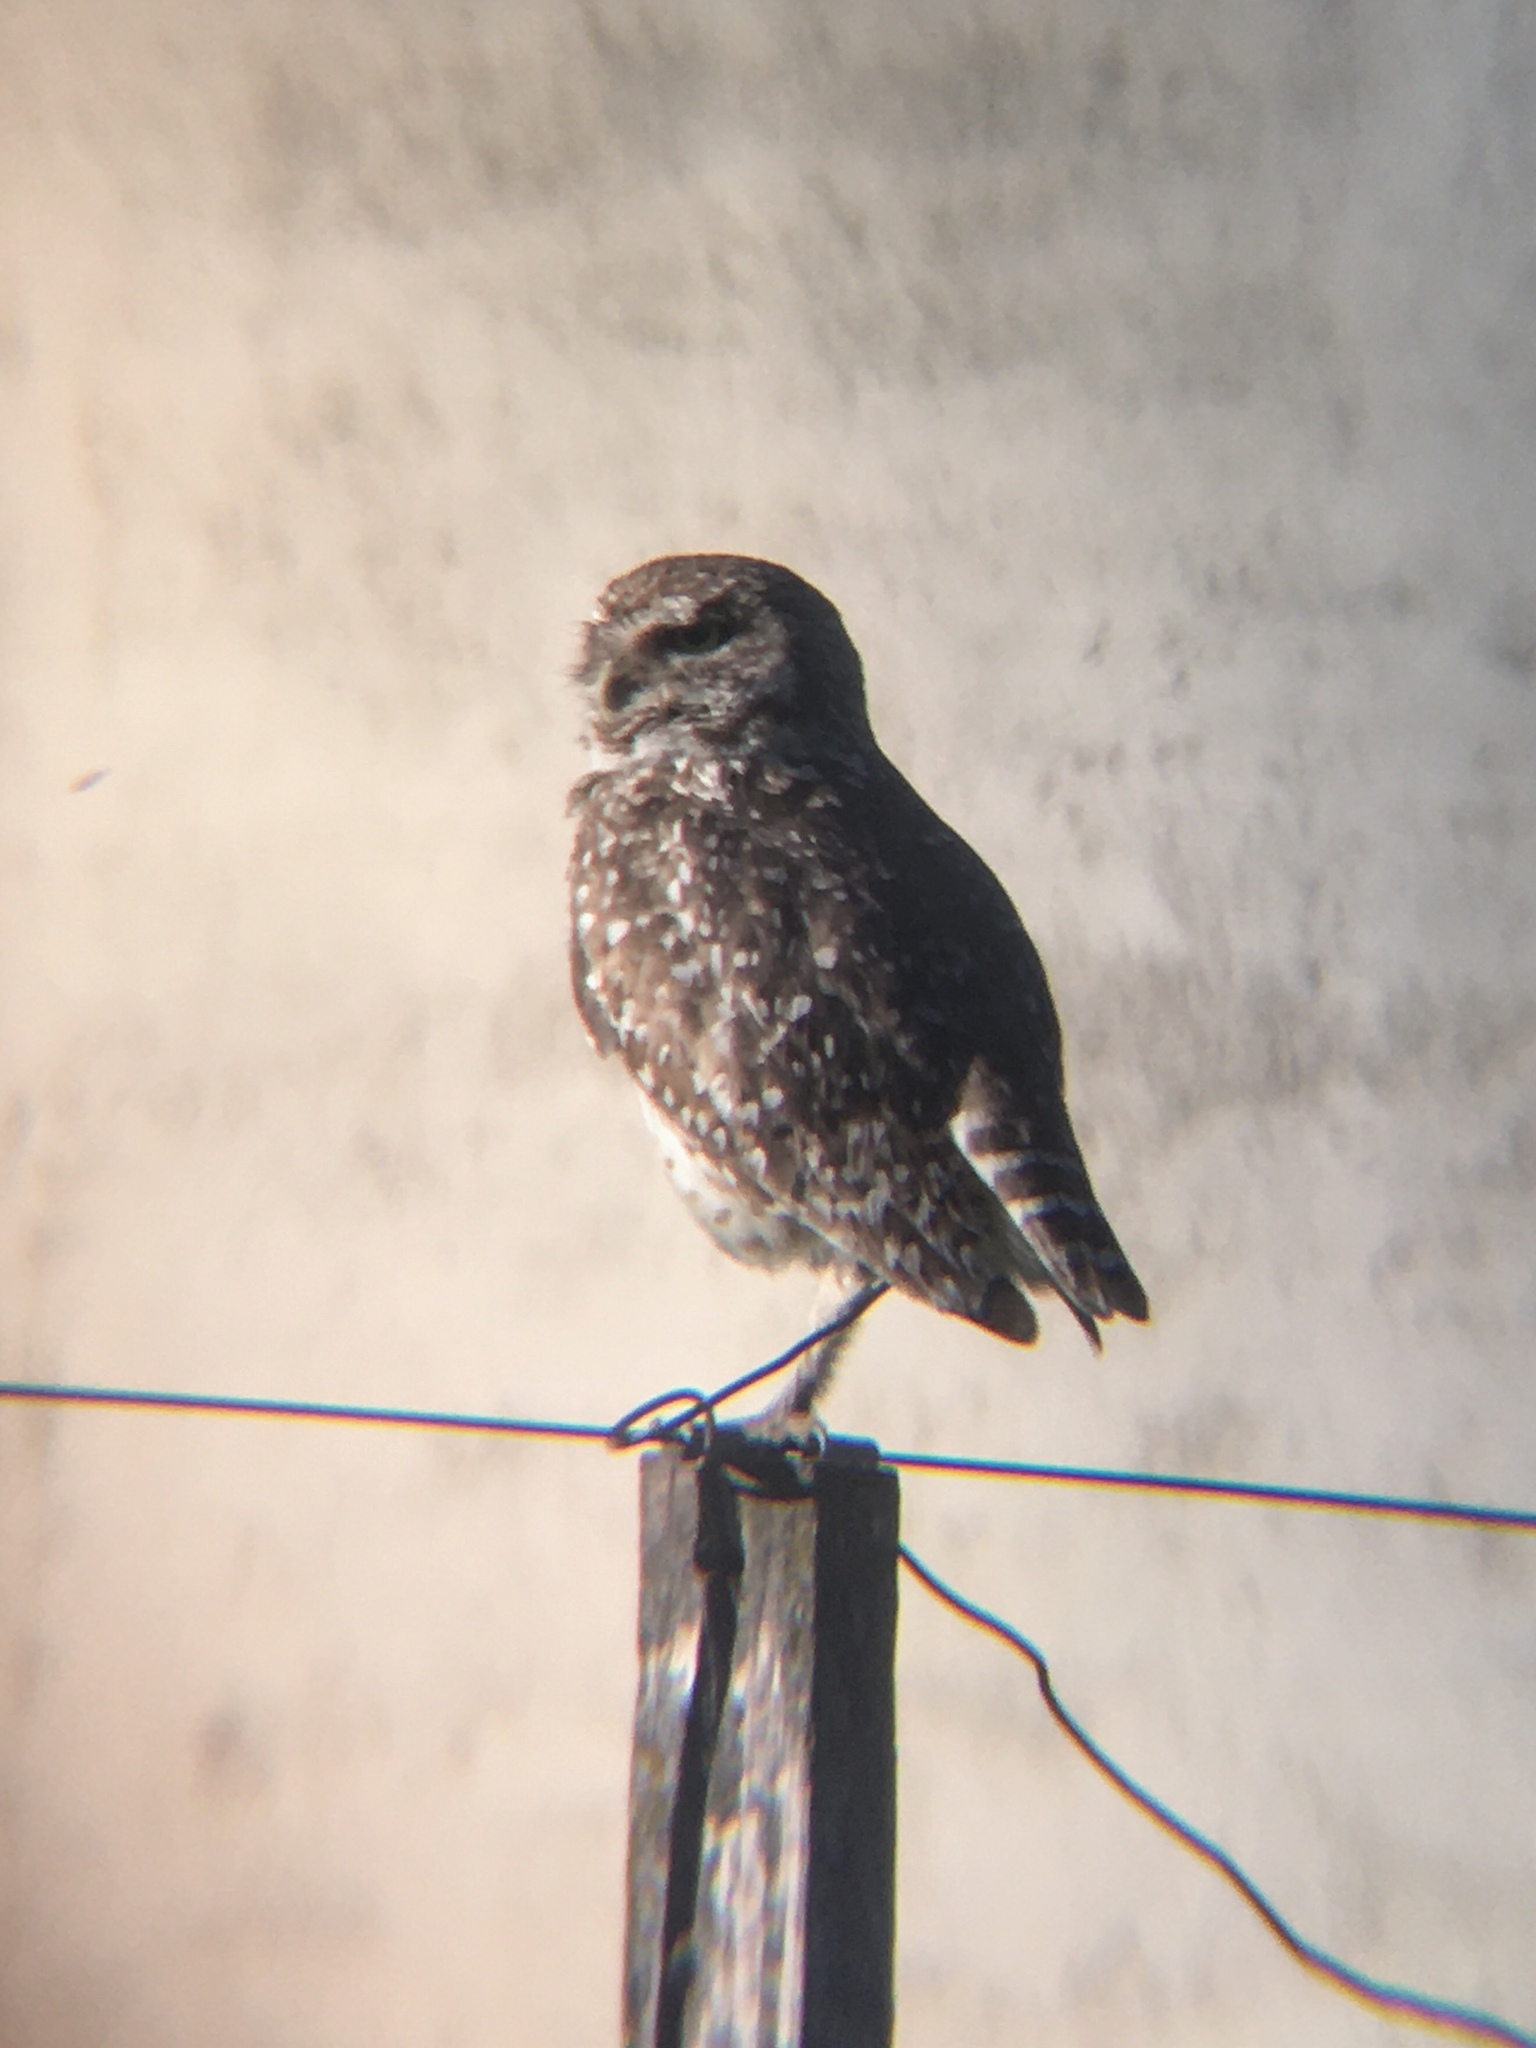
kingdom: Animalia
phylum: Chordata
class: Aves
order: Strigiformes
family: Strigidae
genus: Athene
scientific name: Athene cunicularia
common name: Burrowing owl
